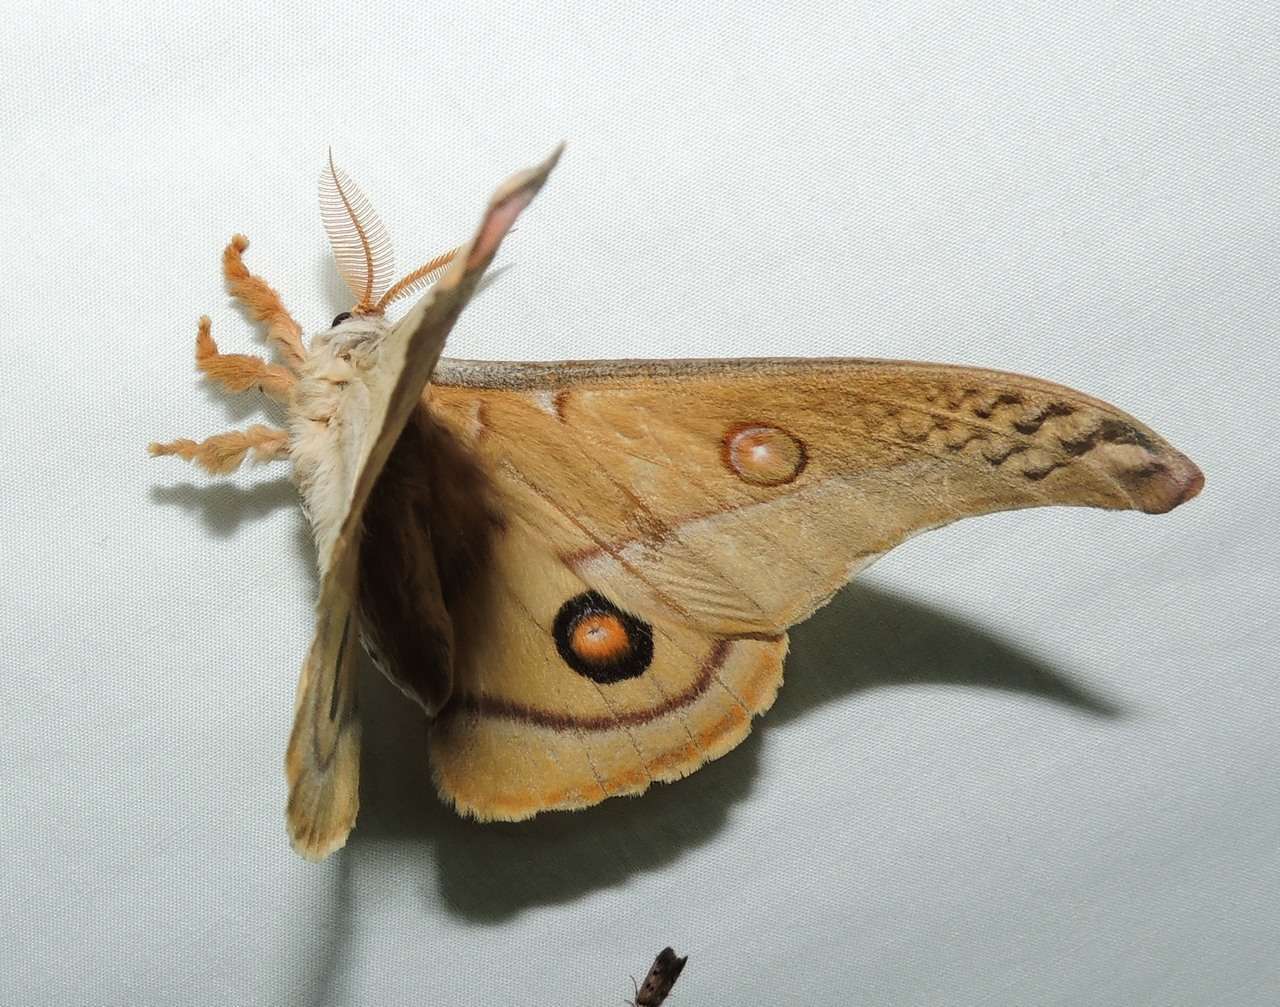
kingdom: Animalia
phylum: Arthropoda
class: Insecta
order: Lepidoptera
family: Saturniidae
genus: Opodiphthera
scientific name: Opodiphthera
